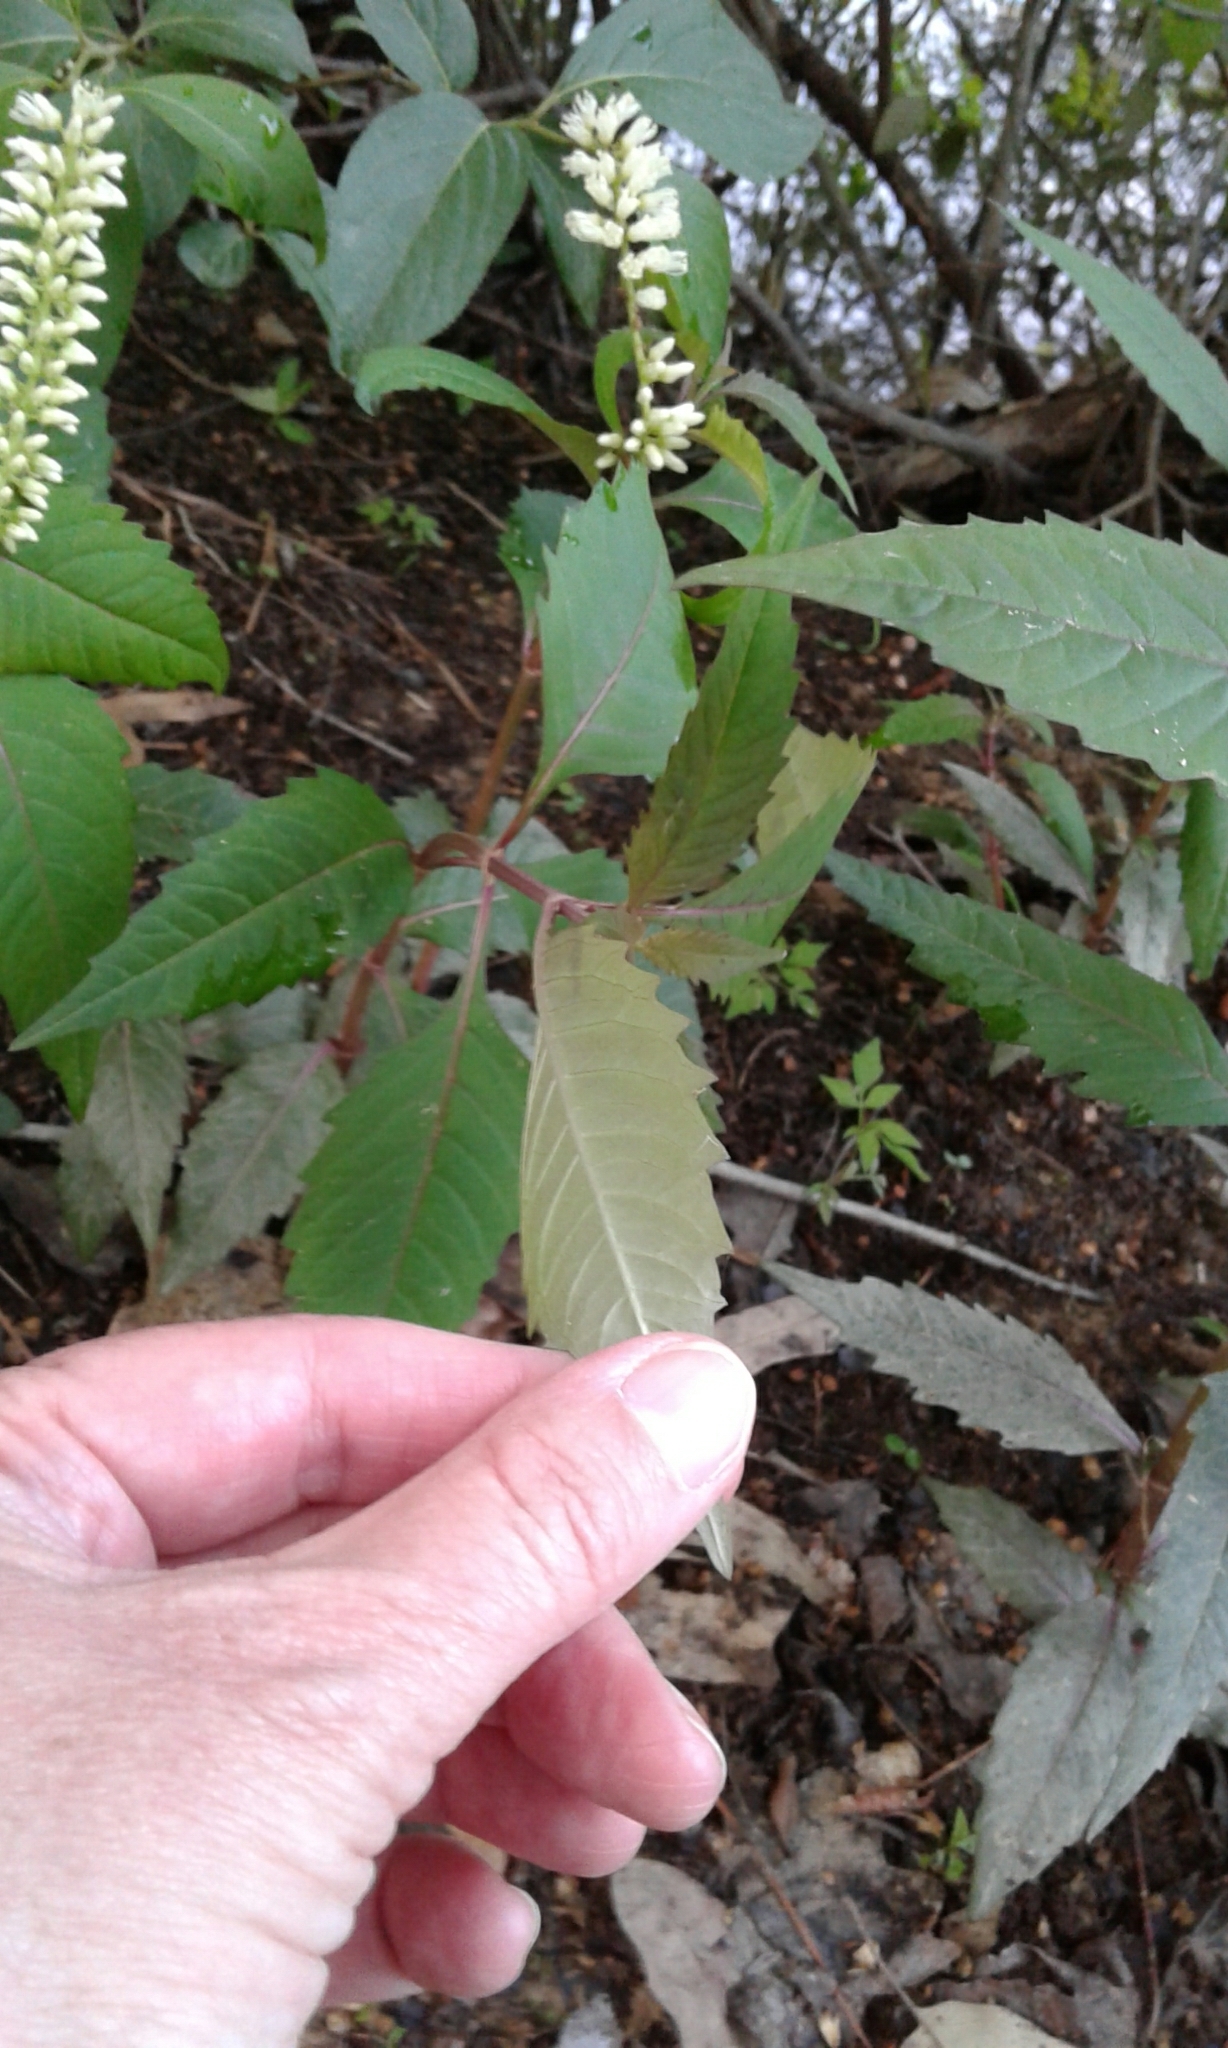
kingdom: Plantae
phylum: Tracheophyta
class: Magnoliopsida
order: Saxifragales
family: Iteaceae
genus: Itea
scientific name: Itea virginica
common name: Sweetspire
